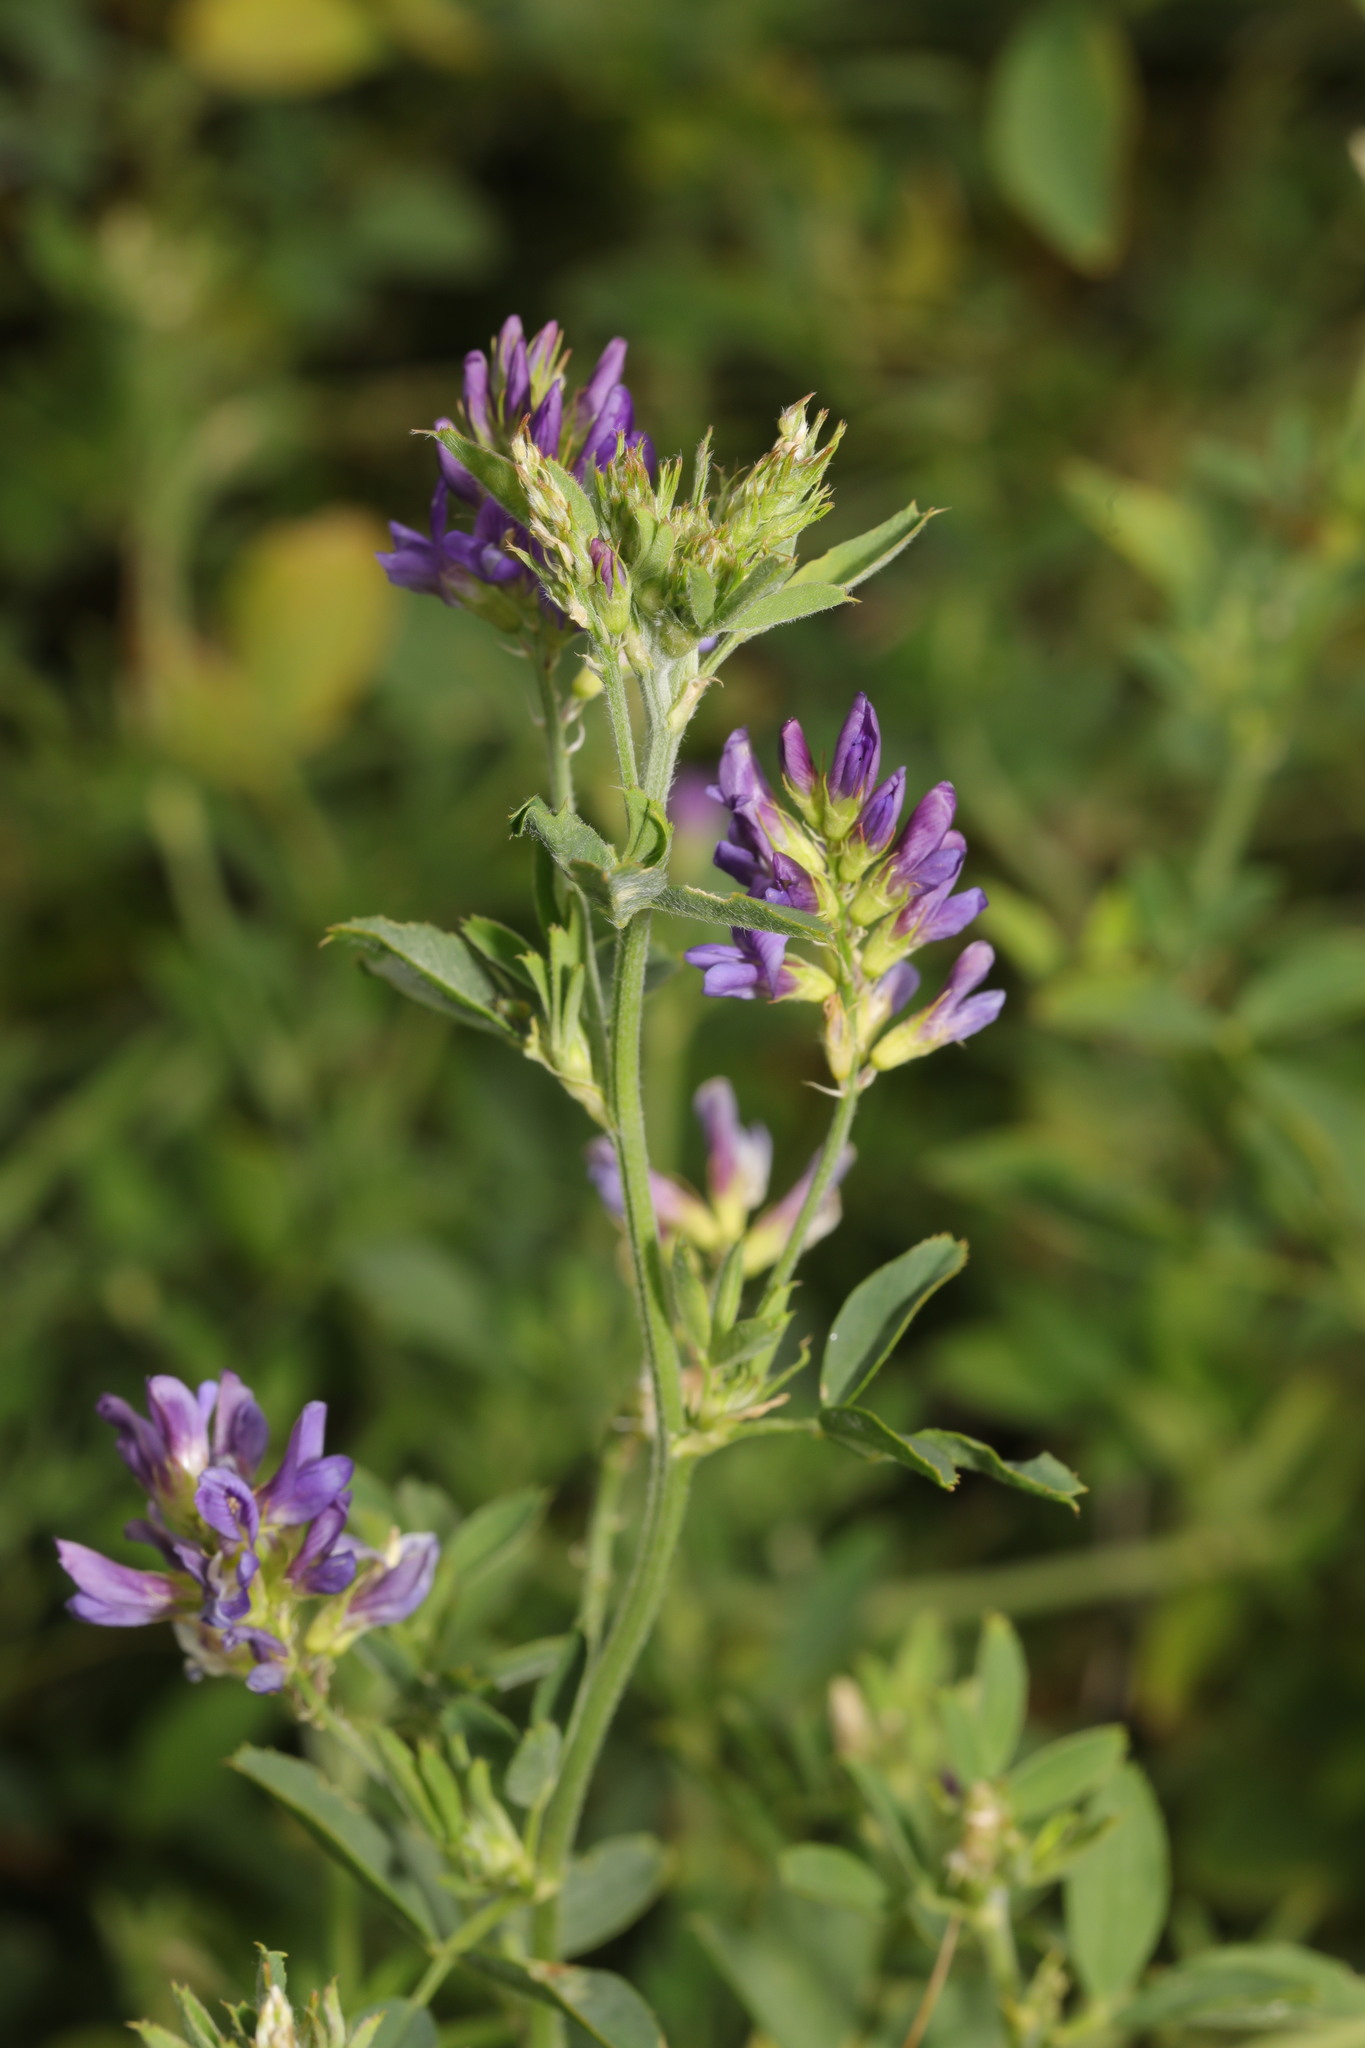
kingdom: Plantae
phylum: Tracheophyta
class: Magnoliopsida
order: Fabales
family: Fabaceae
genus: Medicago
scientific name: Medicago sativa
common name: Alfalfa
